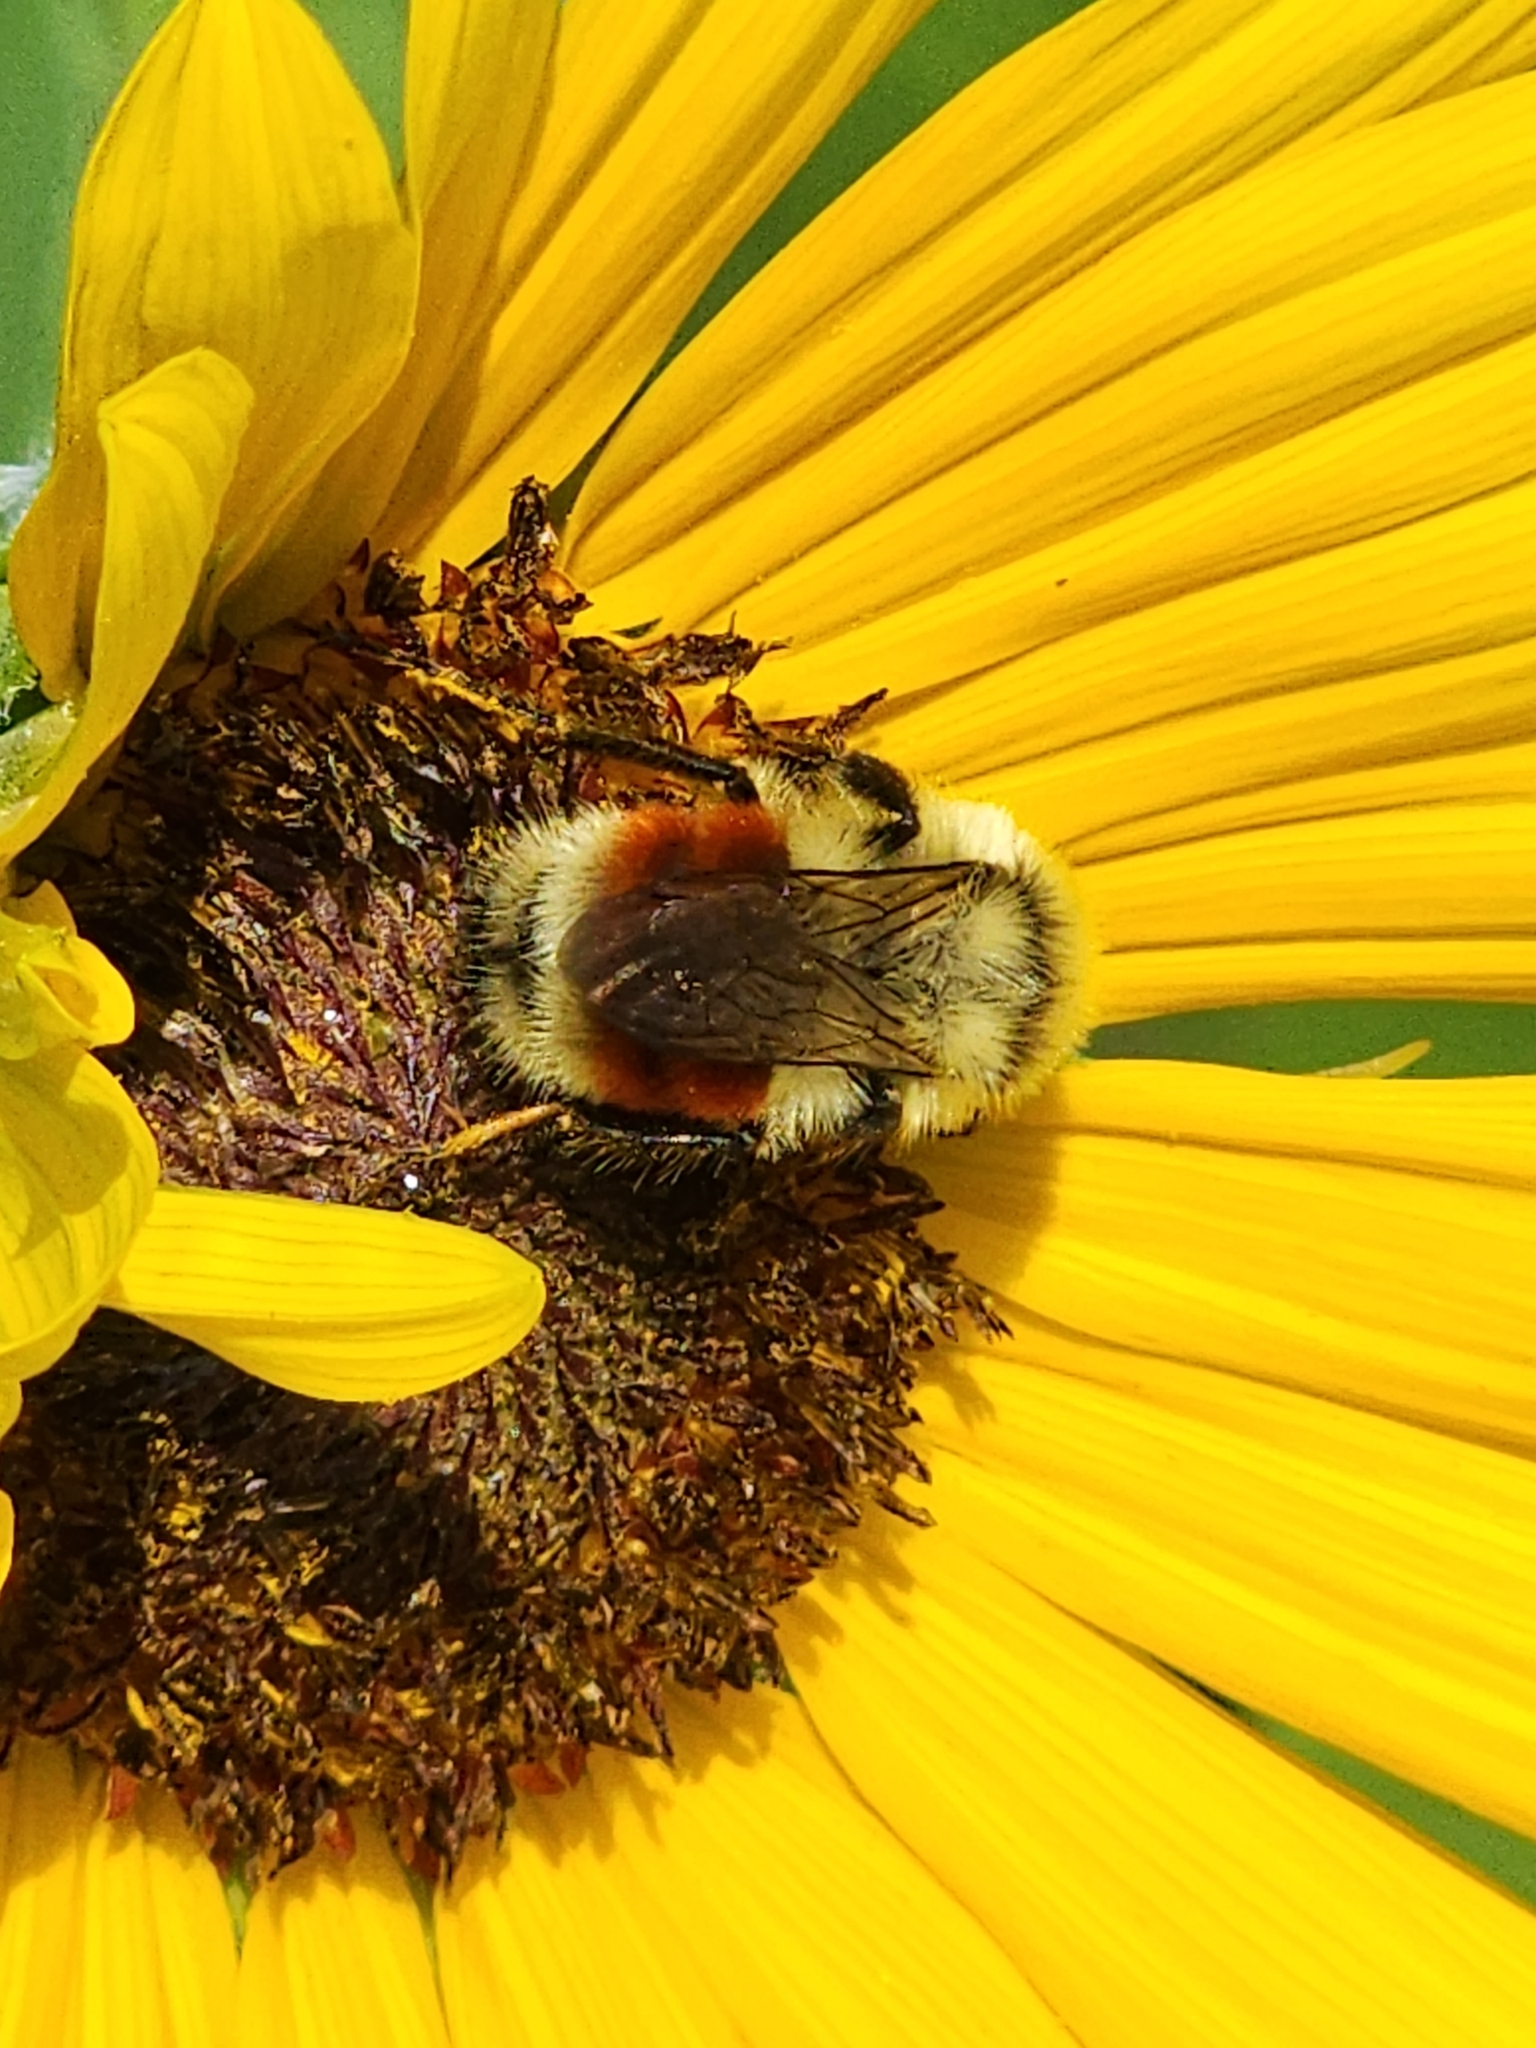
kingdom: Animalia
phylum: Arthropoda
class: Insecta
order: Hymenoptera
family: Apidae
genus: Bombus
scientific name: Bombus huntii
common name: Hunt bumble bee
